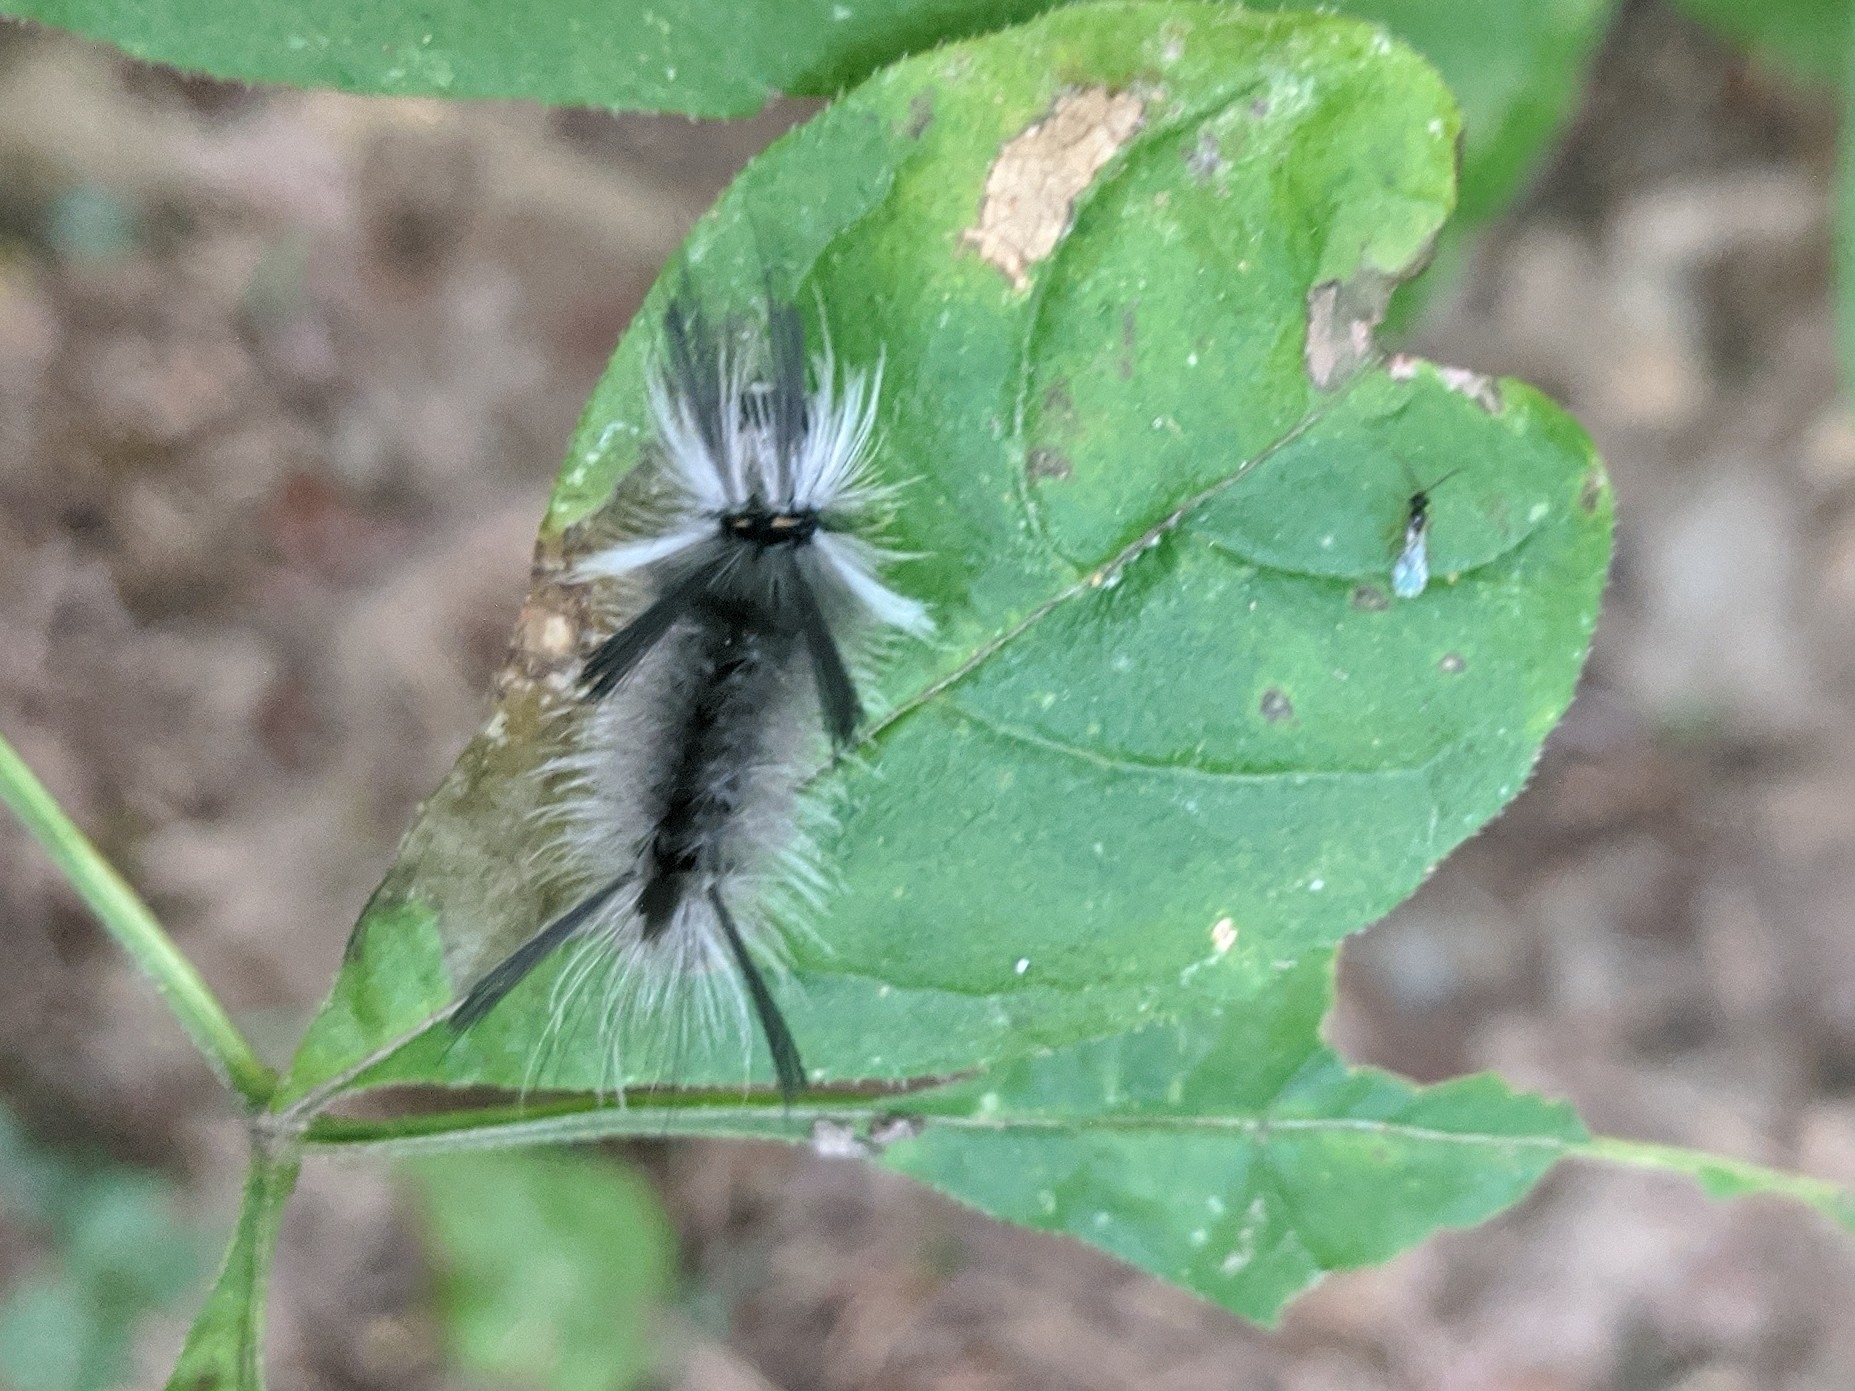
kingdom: Animalia
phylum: Arthropoda
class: Insecta
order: Lepidoptera
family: Erebidae
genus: Halysidota
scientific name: Halysidota tessellaris
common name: Banded tussock moth
